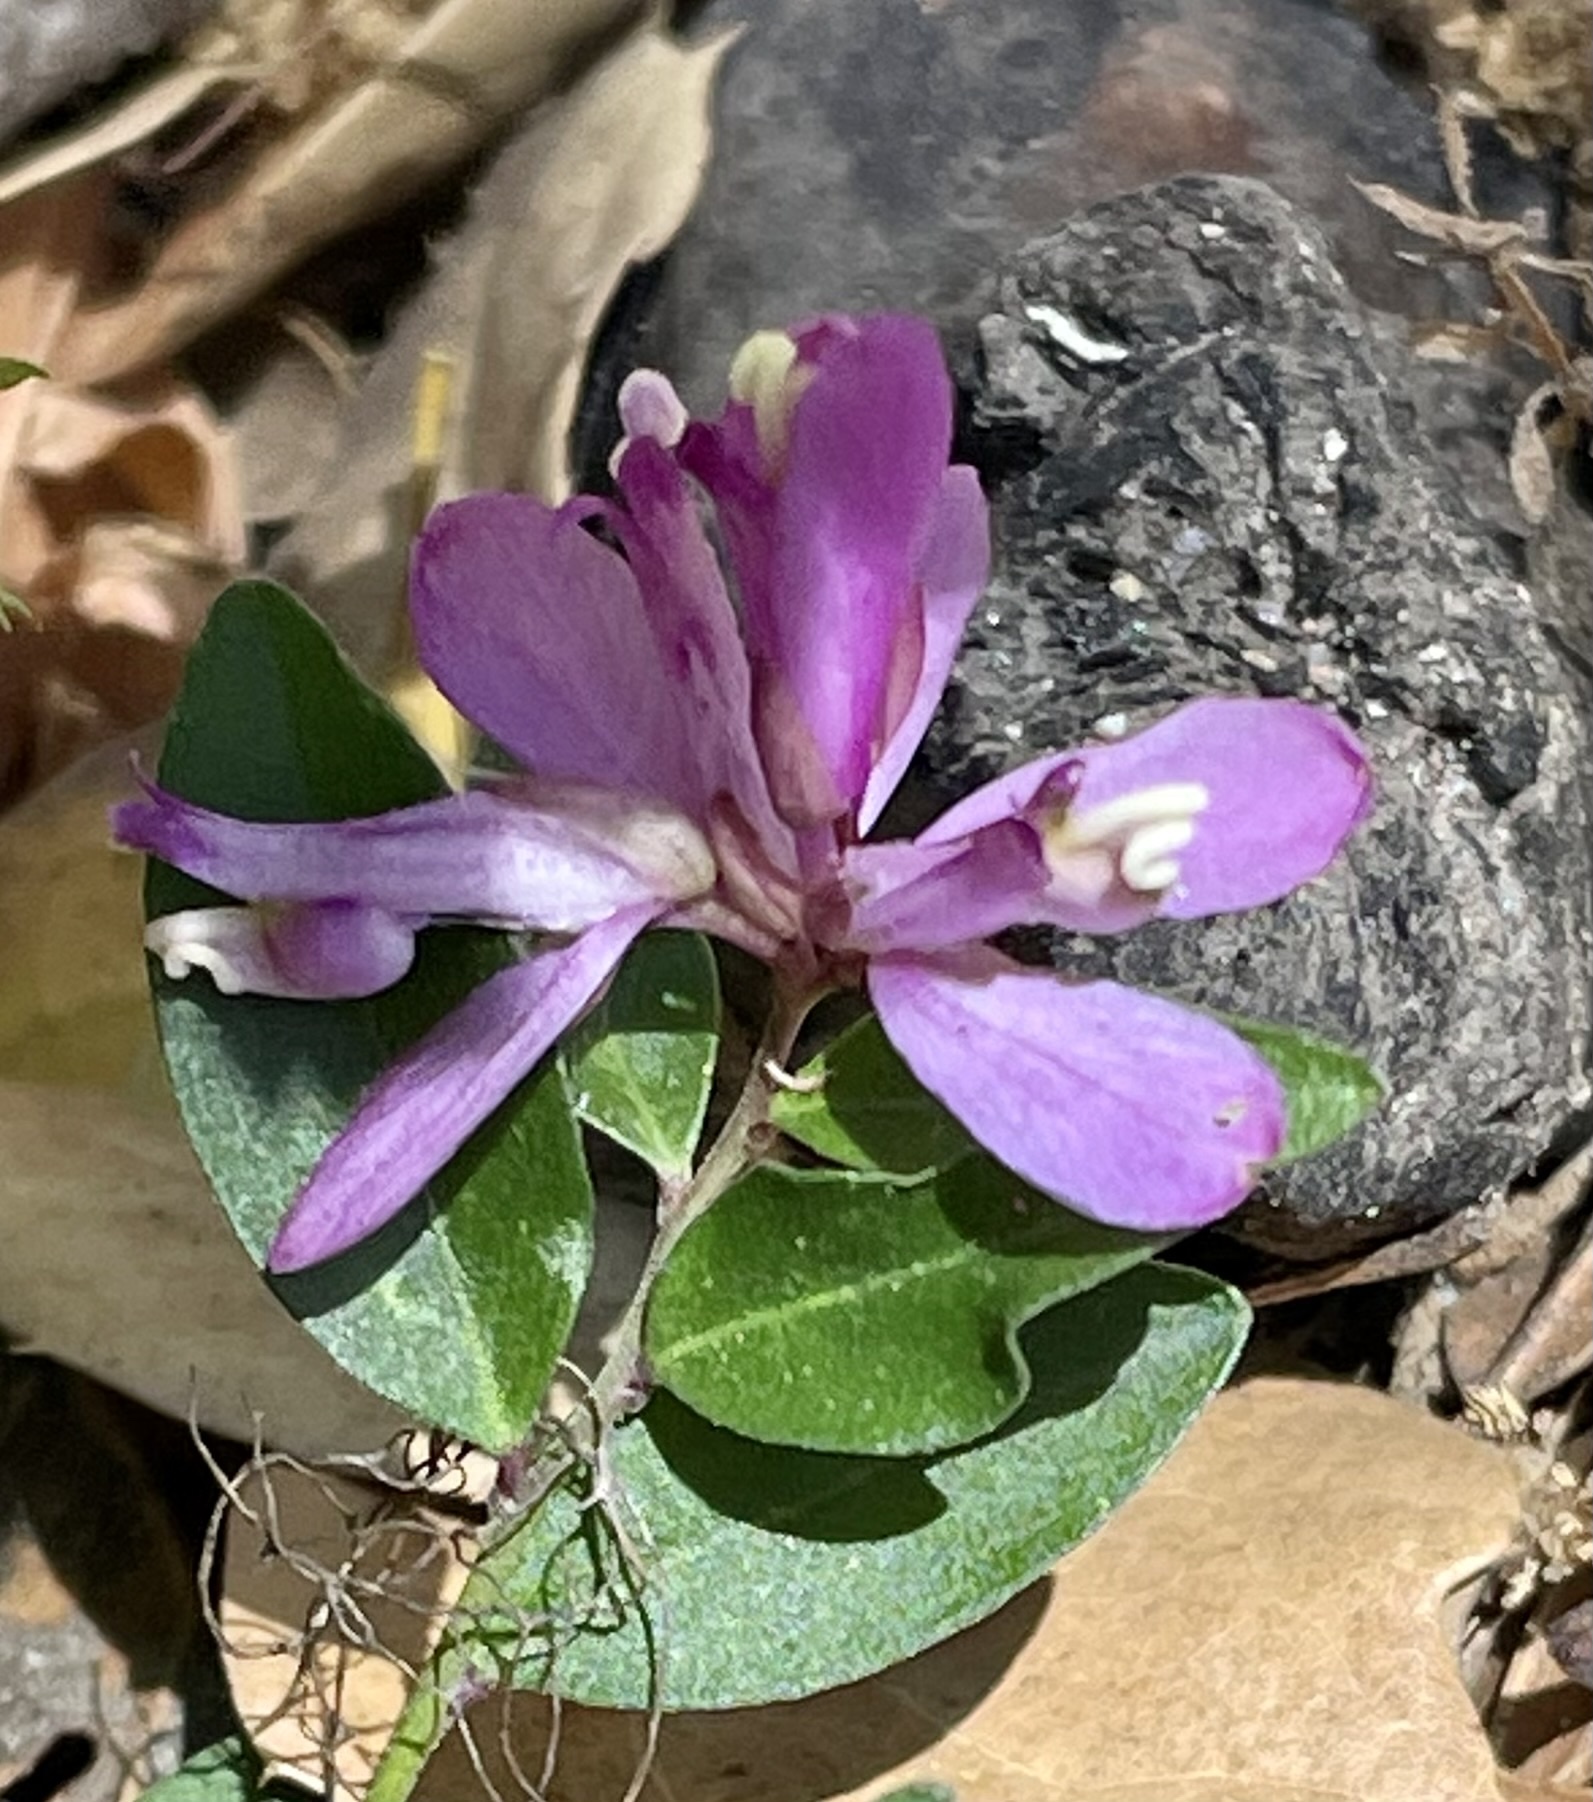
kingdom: Plantae
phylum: Tracheophyta
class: Magnoliopsida
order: Fabales
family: Polygalaceae
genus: Rhinotropis
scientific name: Rhinotropis californica
